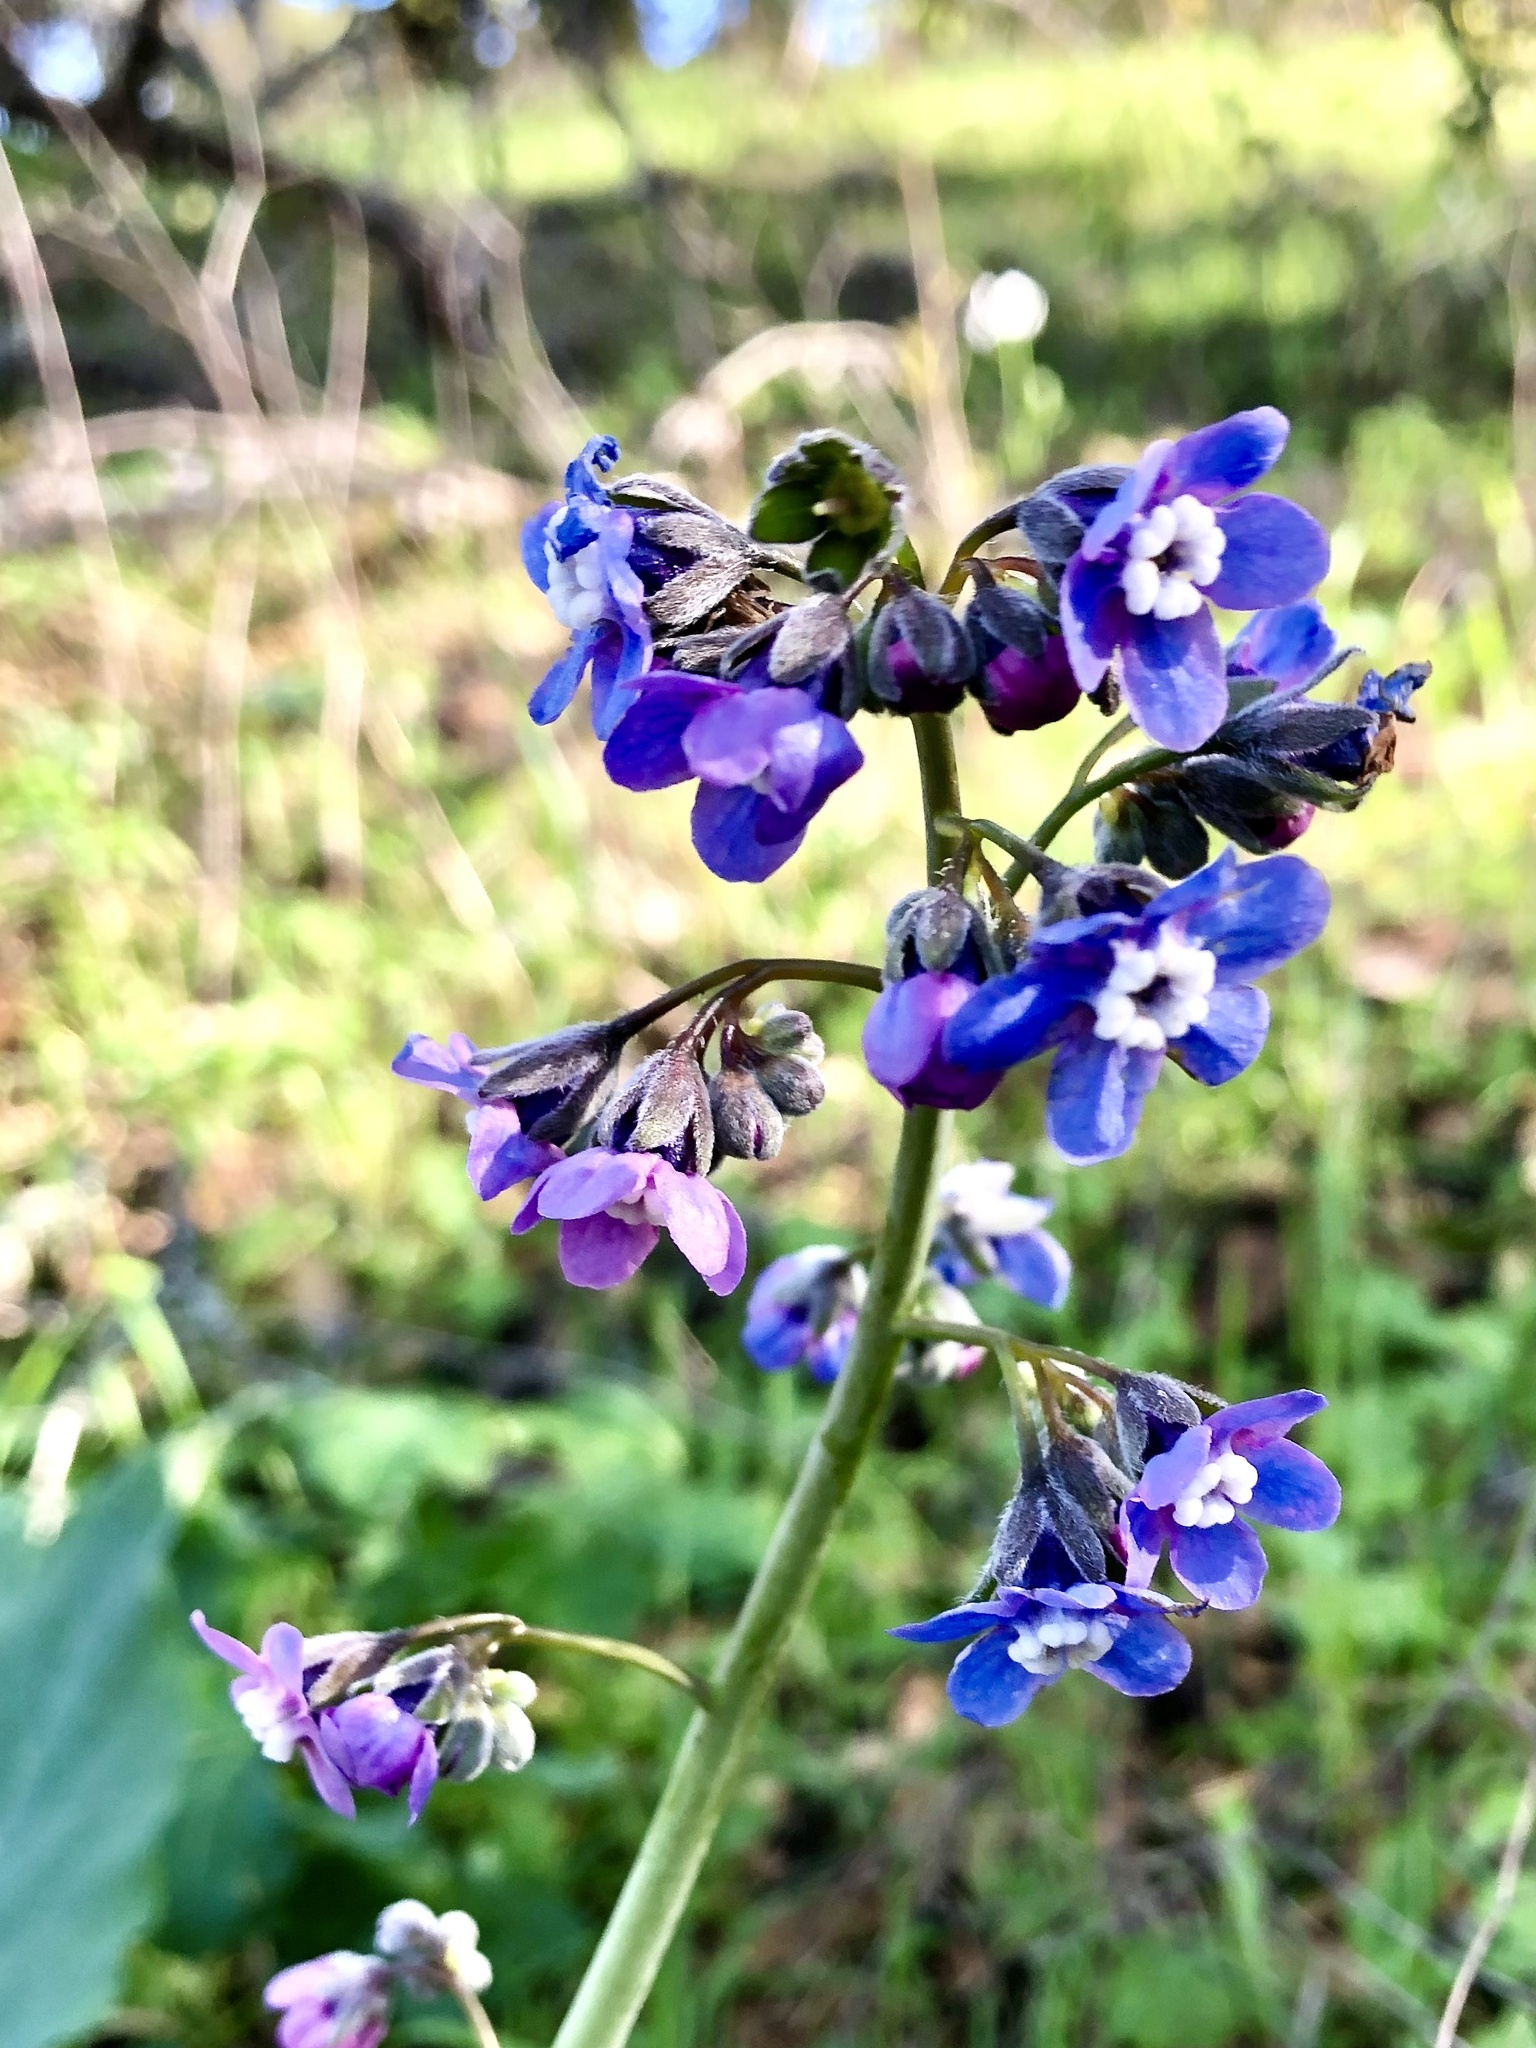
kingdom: Plantae
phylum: Tracheophyta
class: Magnoliopsida
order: Boraginales
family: Boraginaceae
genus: Adelinia
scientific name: Adelinia grande
